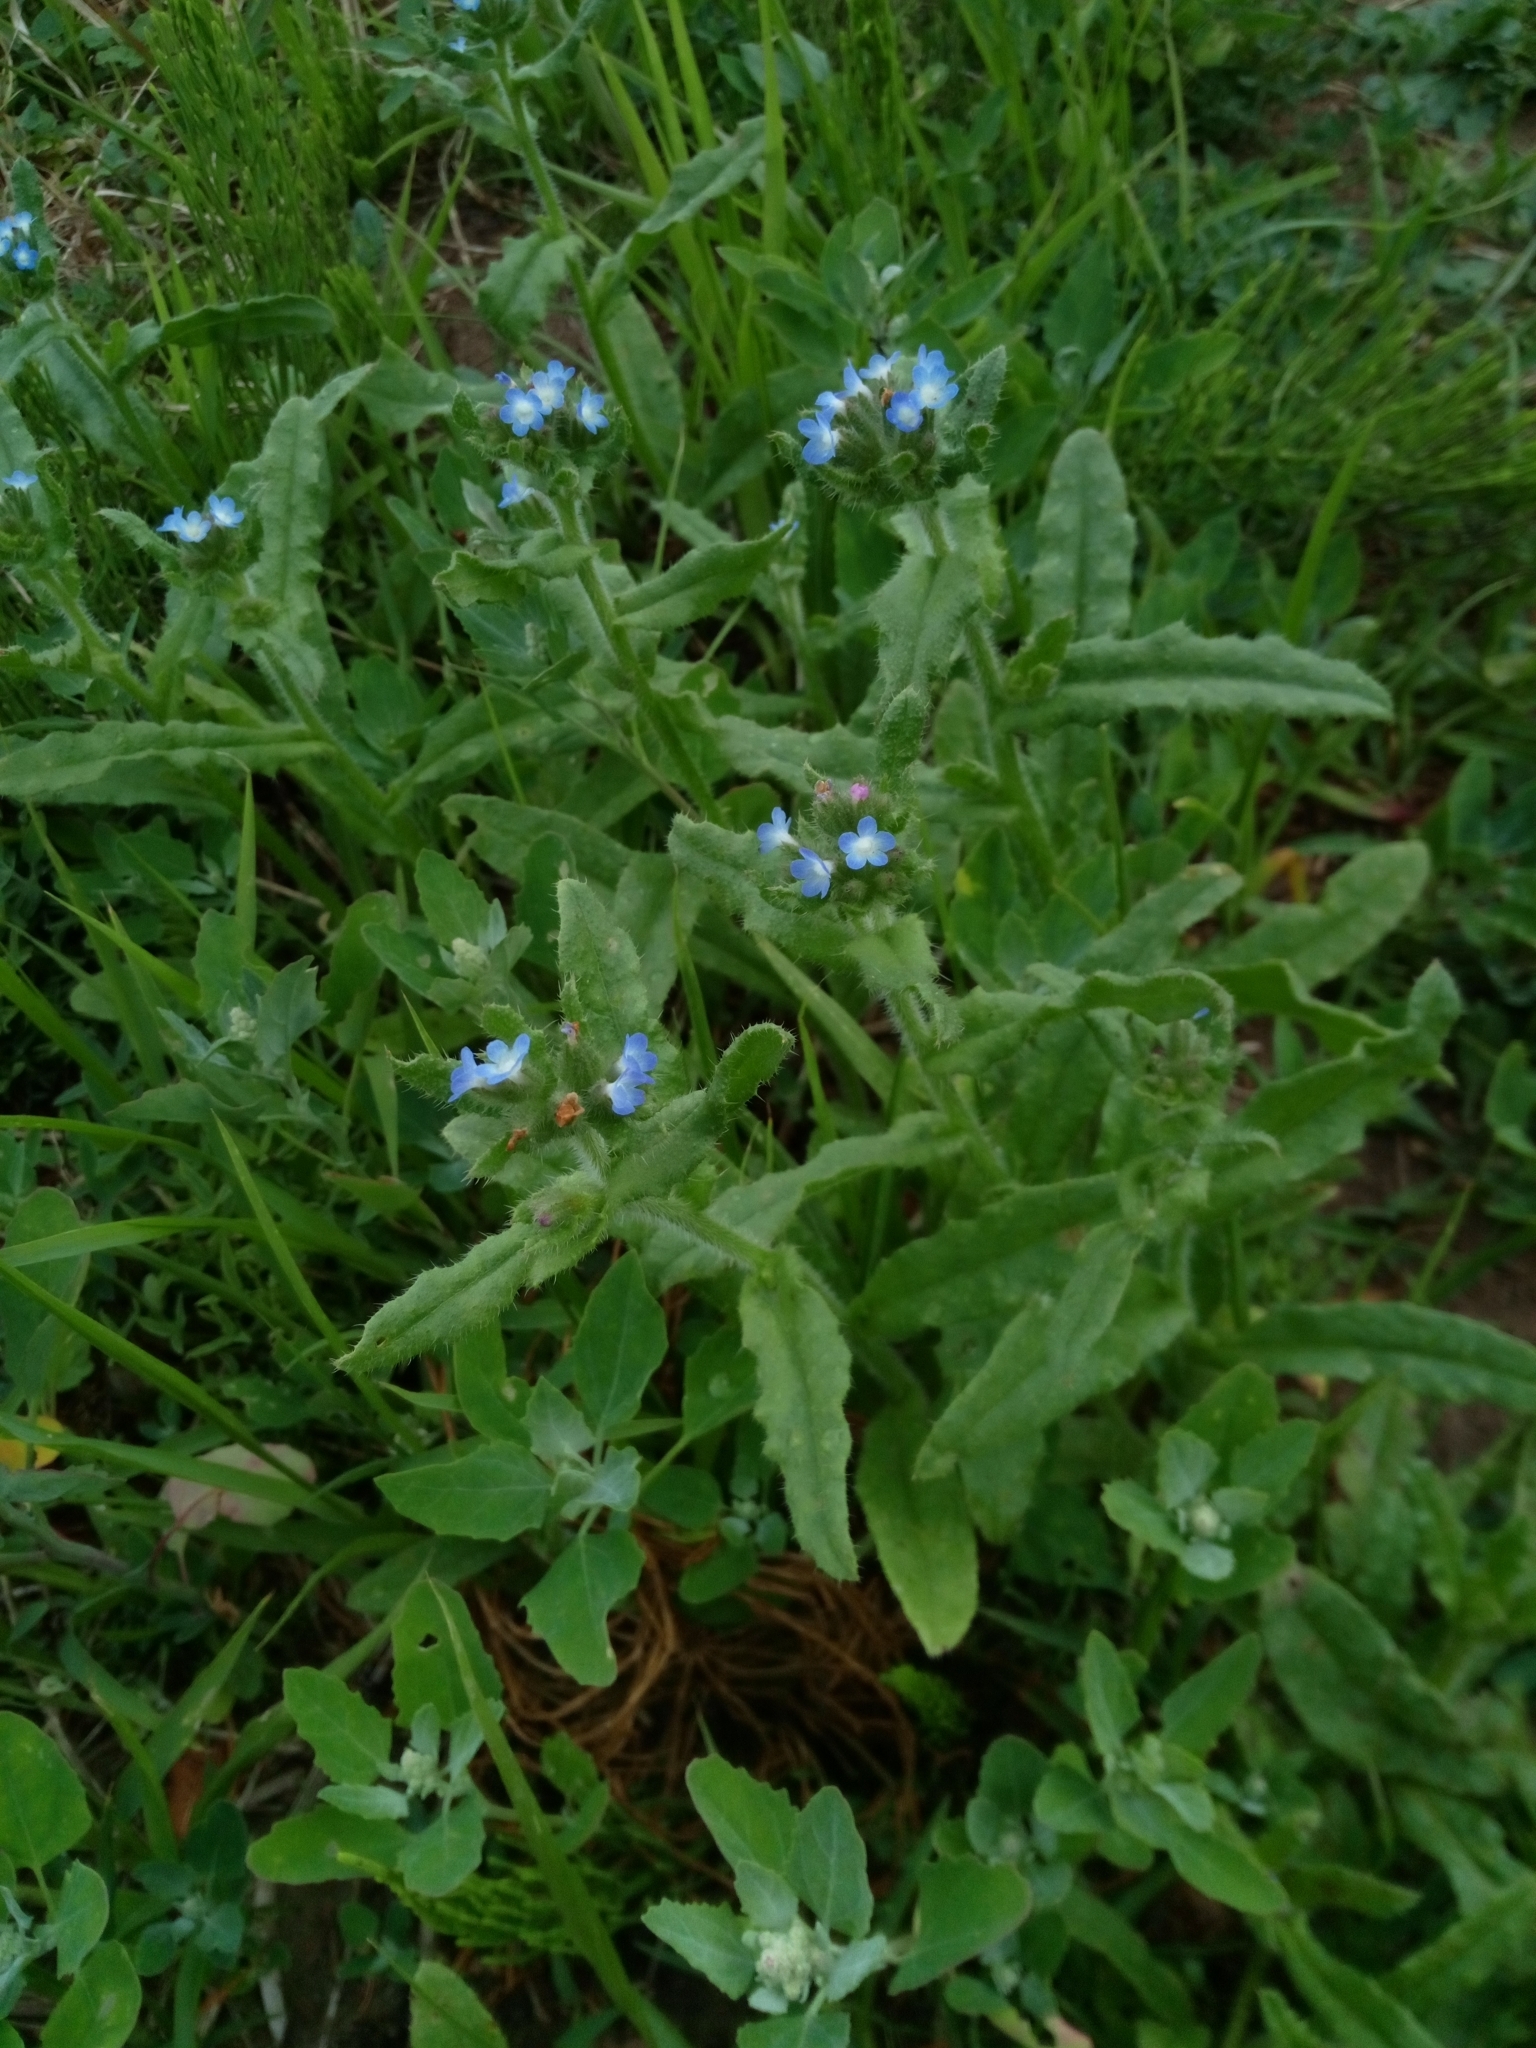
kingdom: Plantae
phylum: Tracheophyta
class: Magnoliopsida
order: Boraginales
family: Boraginaceae
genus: Lycopsis
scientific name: Lycopsis arvensis
